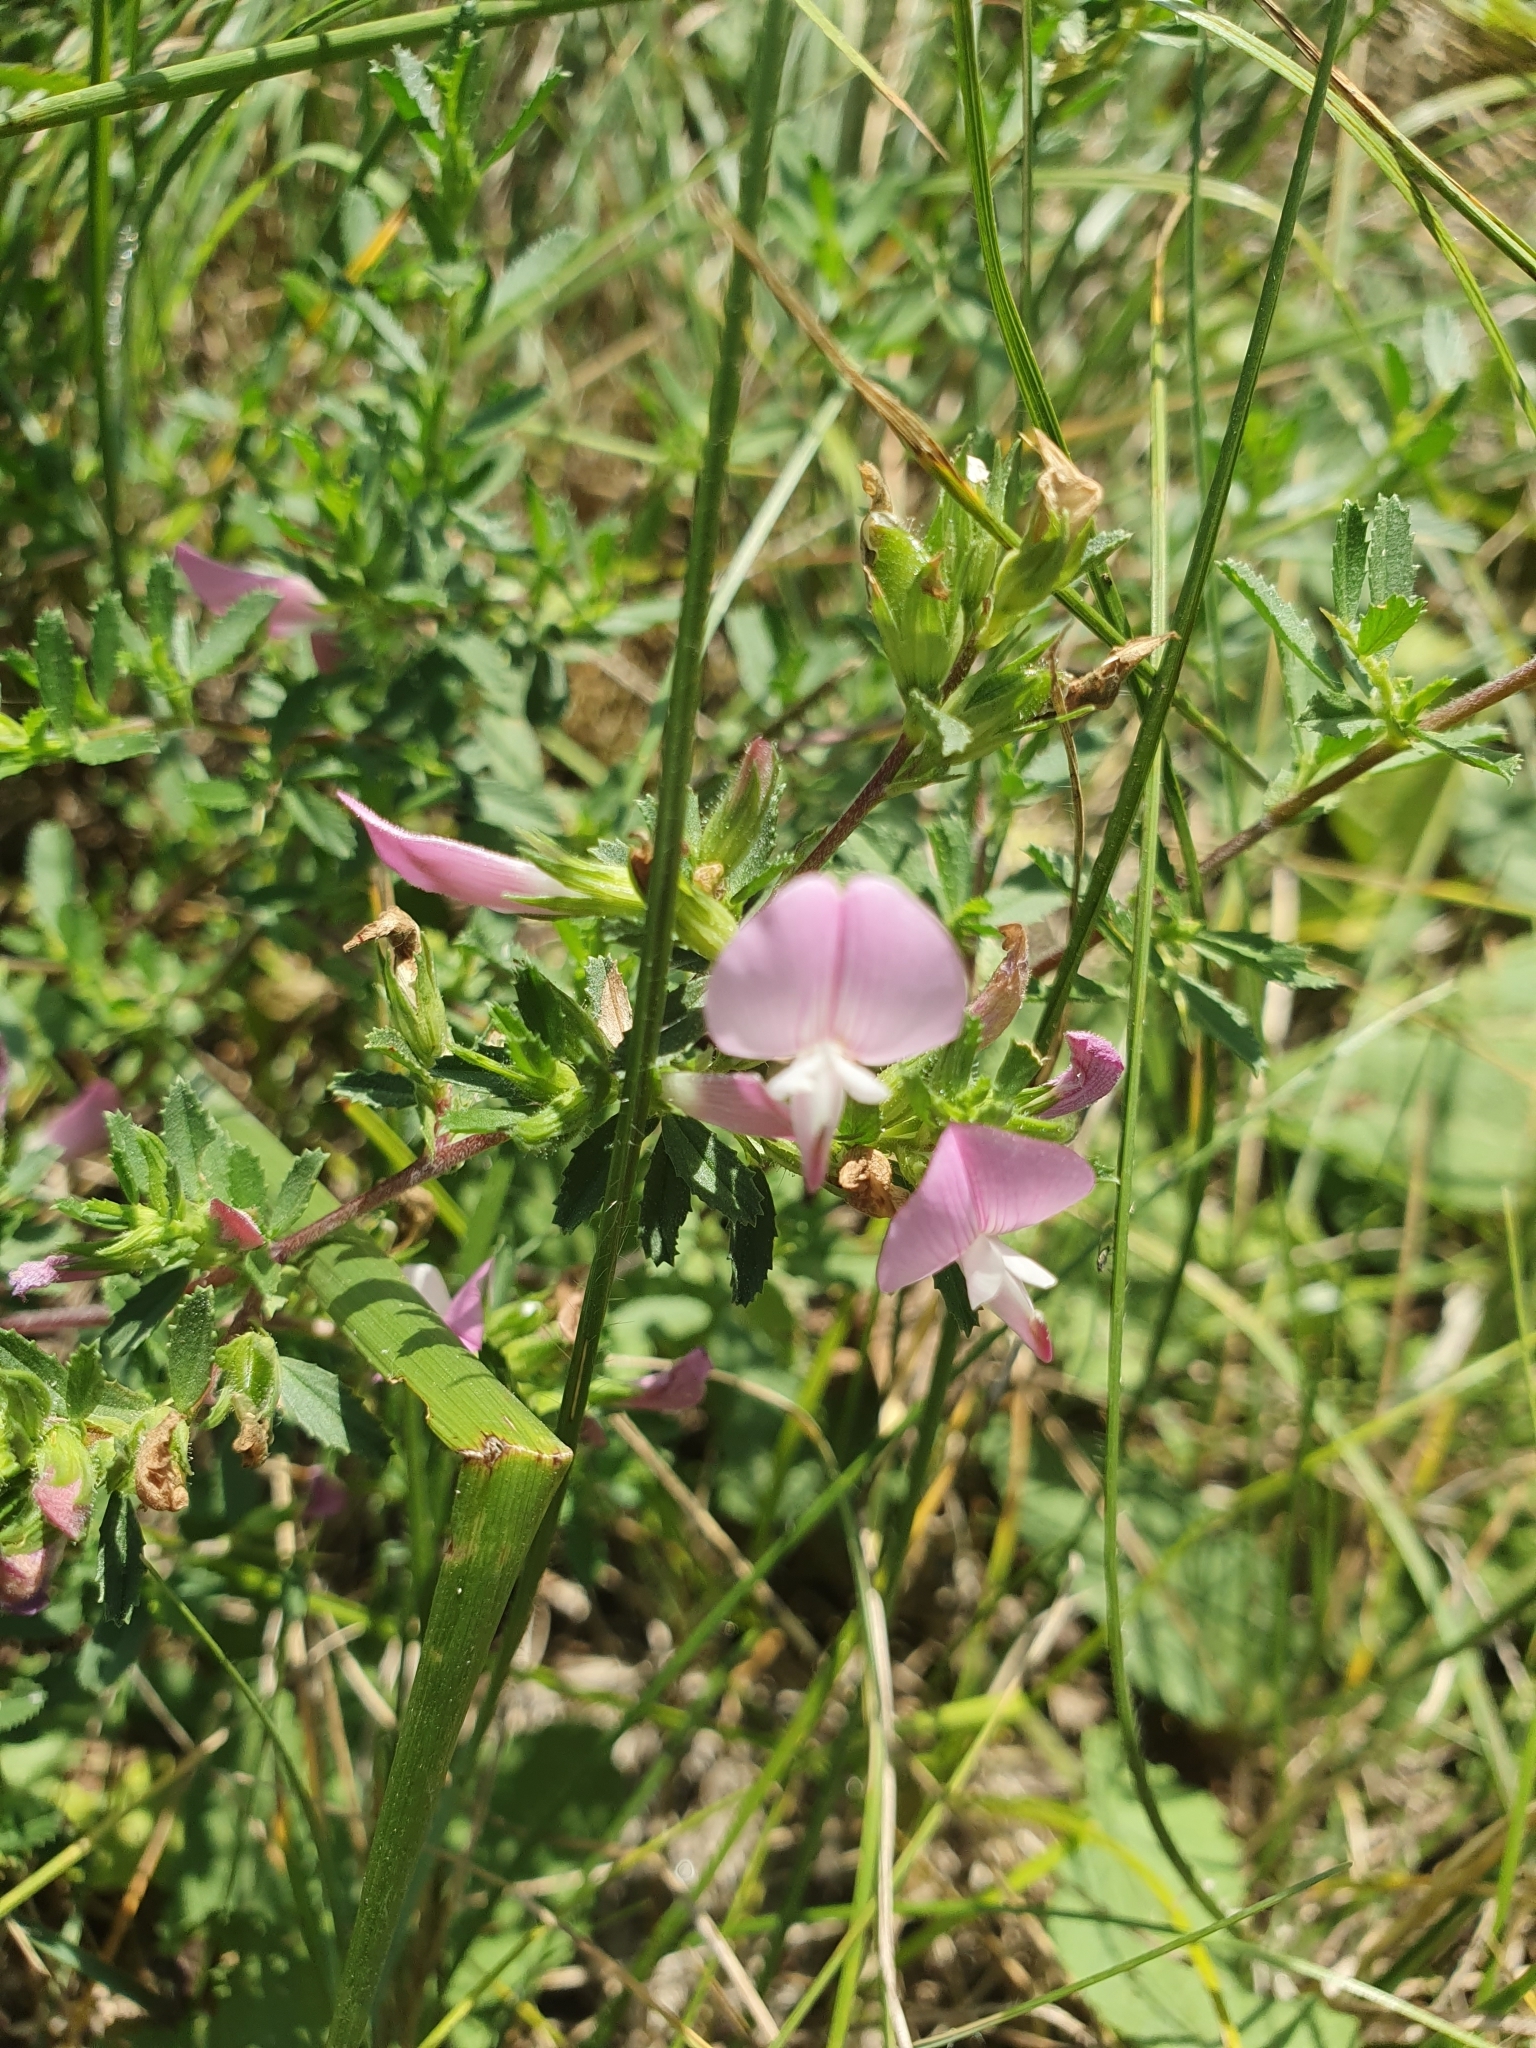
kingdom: Plantae
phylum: Tracheophyta
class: Magnoliopsida
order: Fabales
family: Fabaceae
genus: Ononis
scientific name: Ononis spinosa
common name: Spiny restharrow
